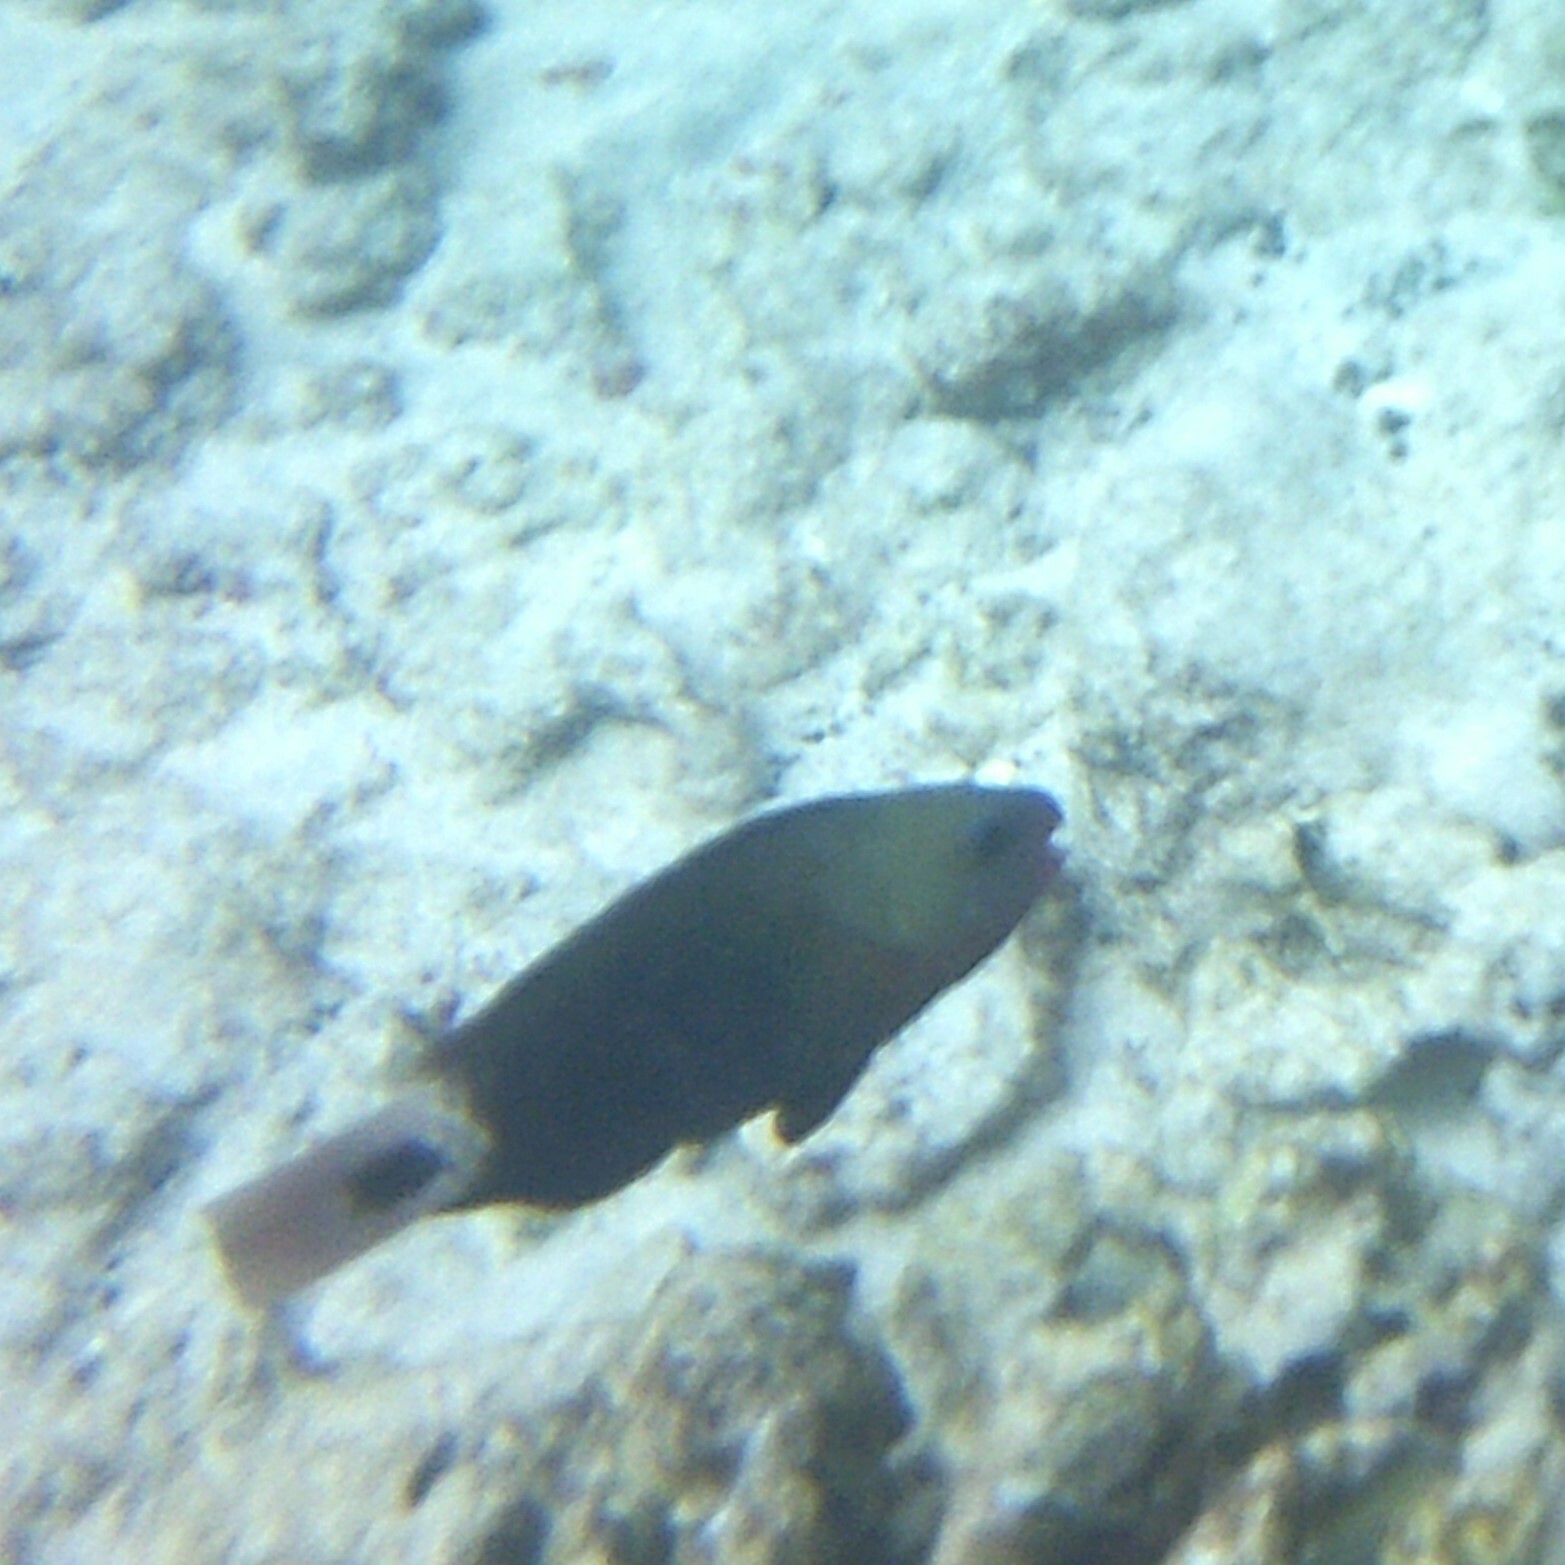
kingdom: Animalia
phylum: Chordata
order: Perciformes
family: Scaridae
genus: Chlorurus
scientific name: Chlorurus spilurus
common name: Bullethead parrotfish
